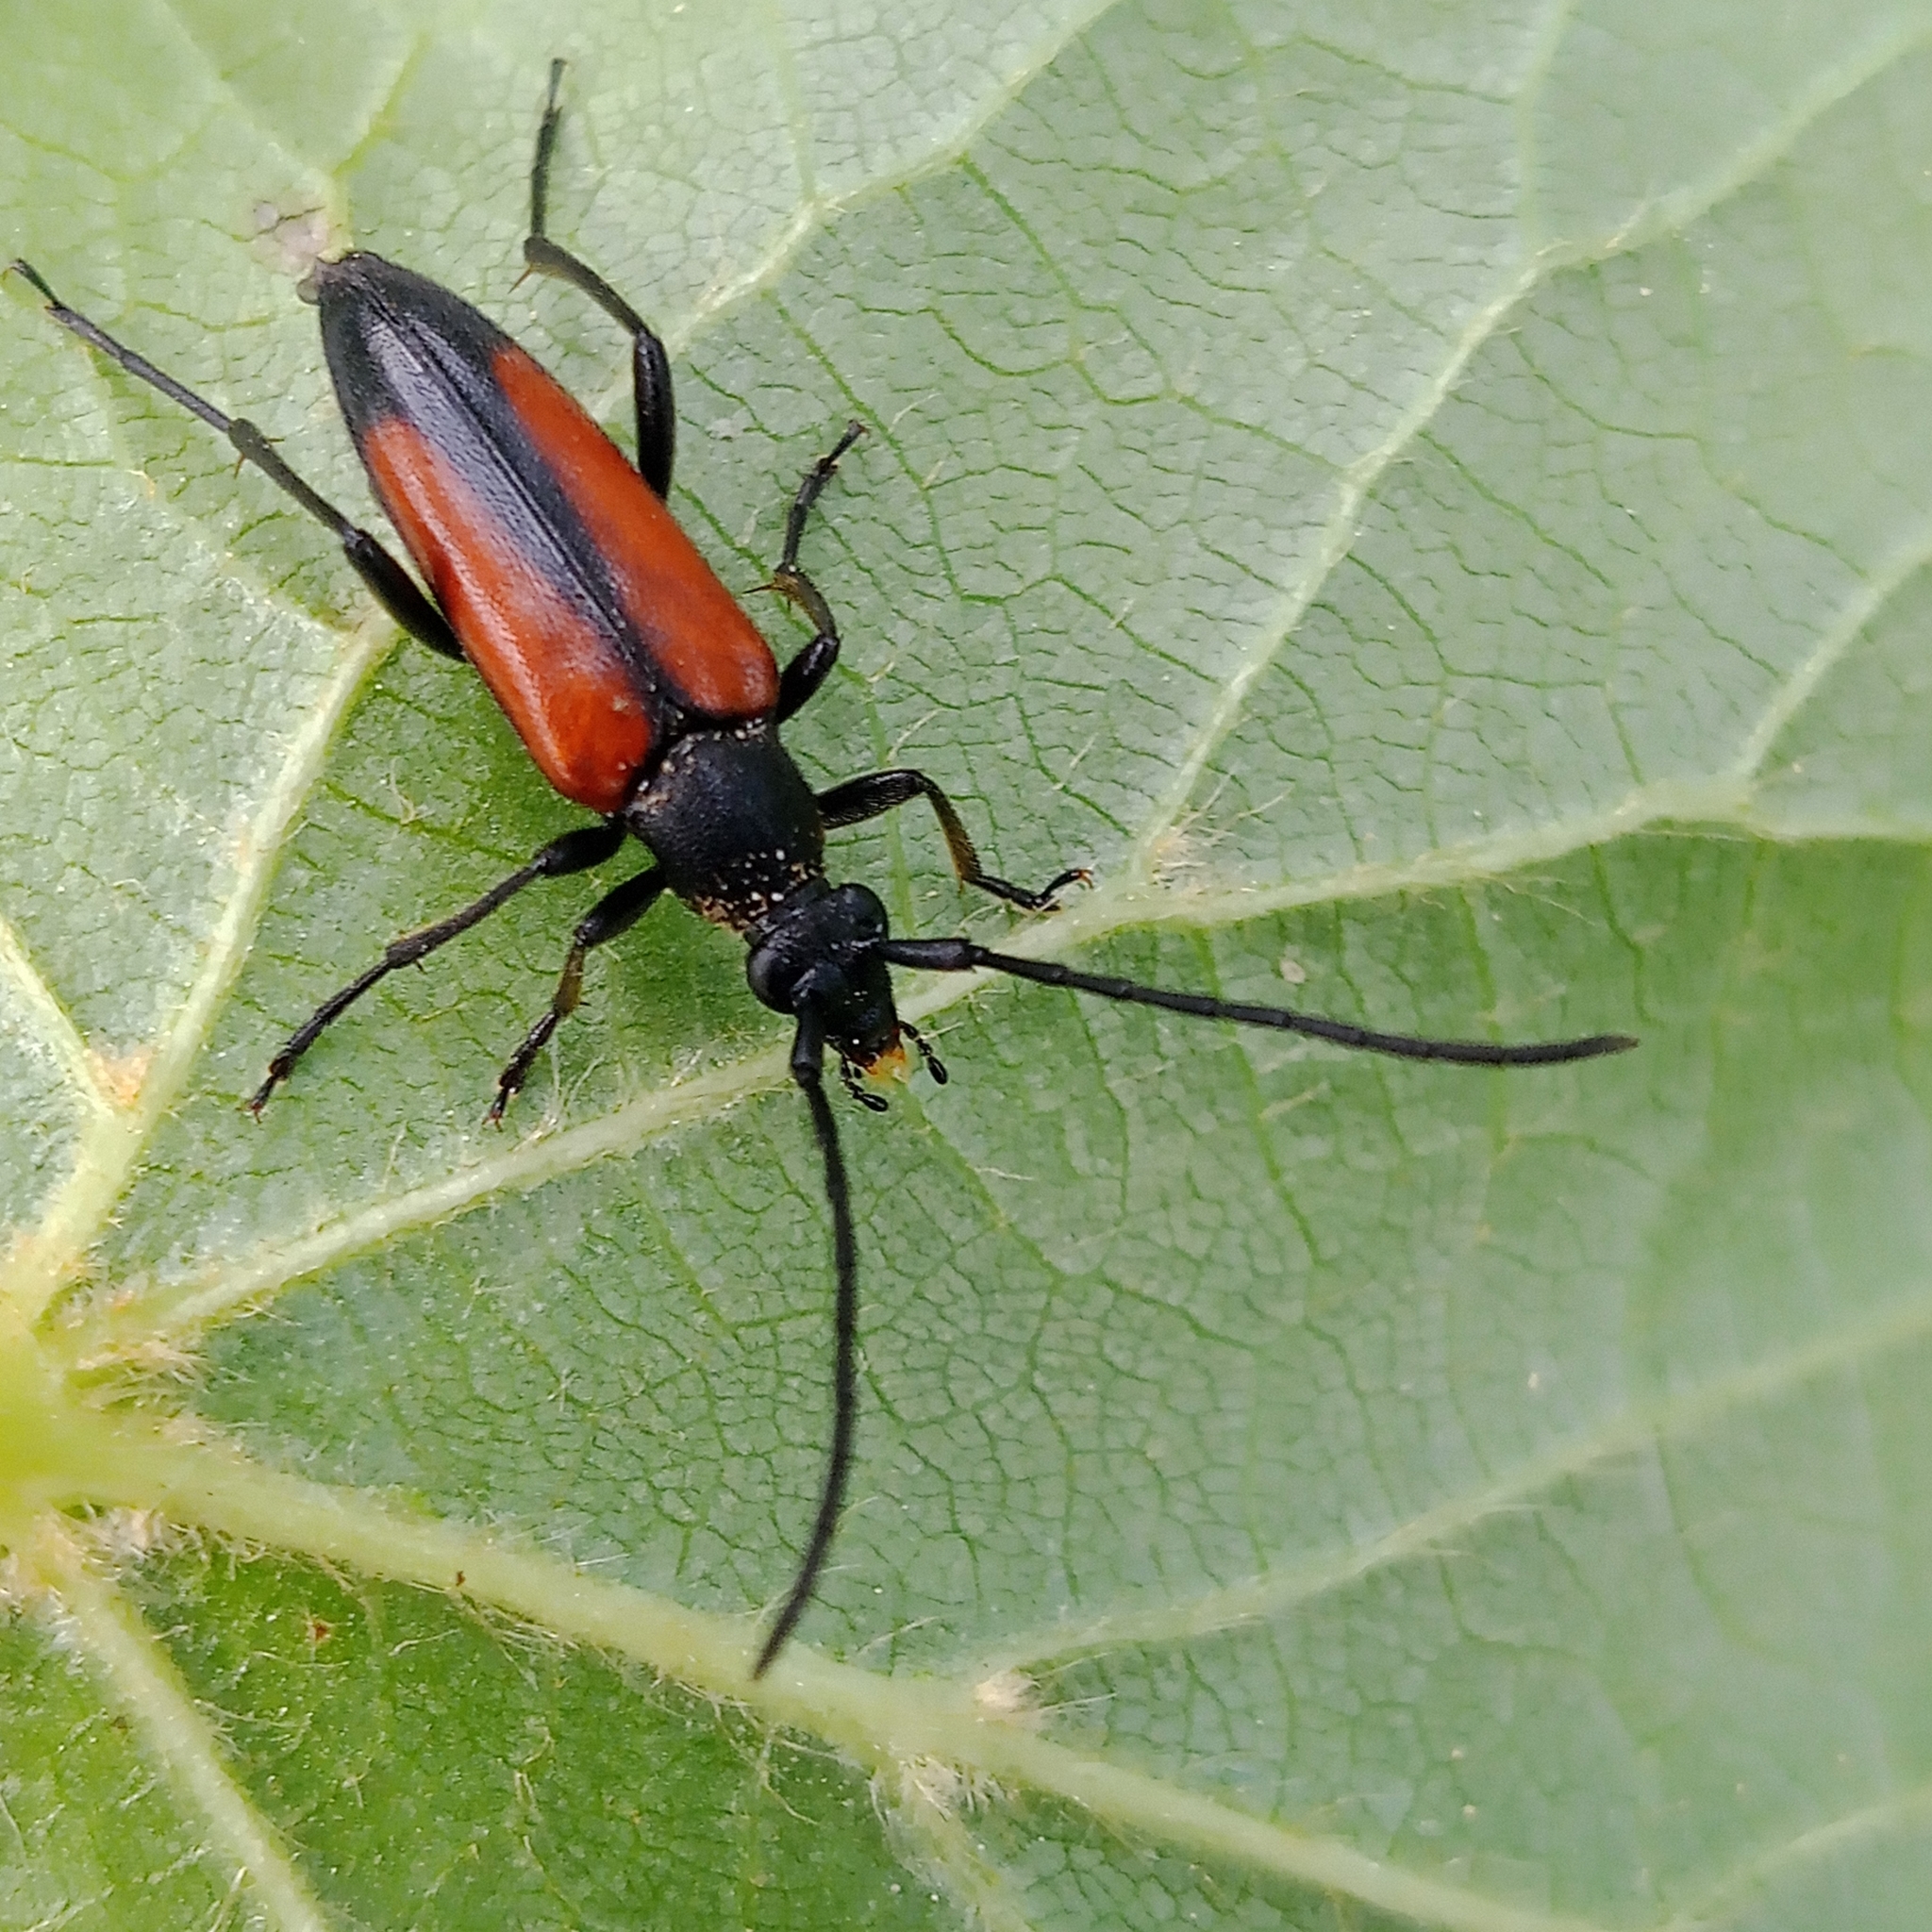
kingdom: Animalia
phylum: Arthropoda
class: Insecta
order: Coleoptera
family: Cerambycidae
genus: Stenurella
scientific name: Stenurella melanura
